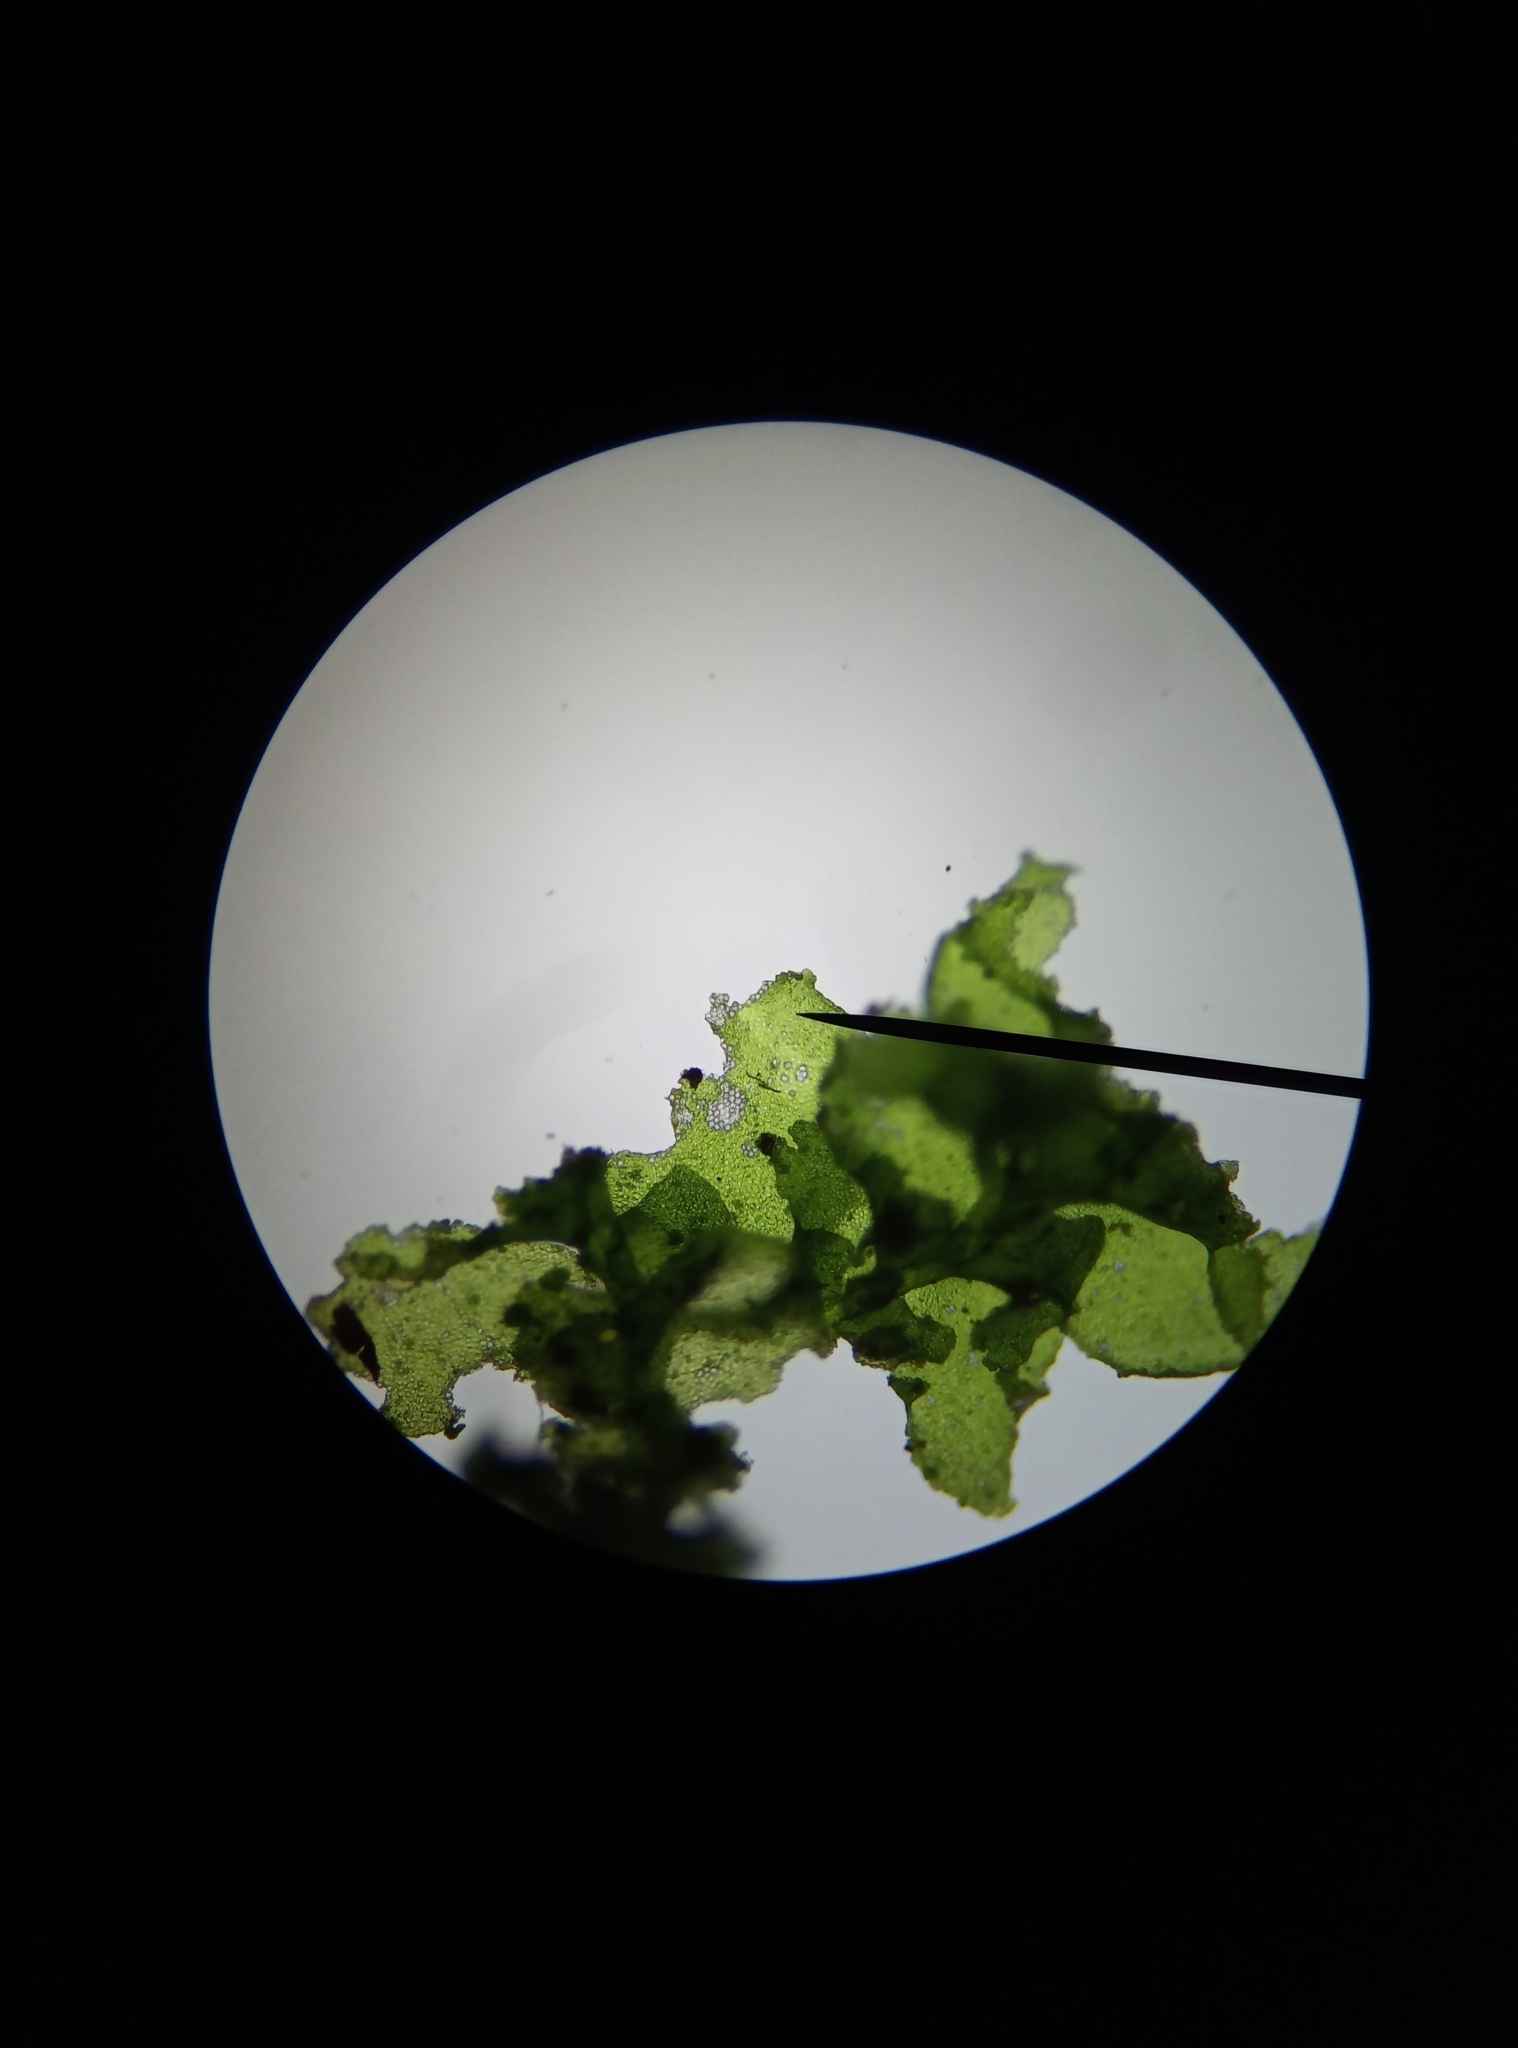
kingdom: Plantae
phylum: Marchantiophyta
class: Jungermanniopsida
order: Porellales
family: Radulaceae
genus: Radula
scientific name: Radula complanata
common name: Flat-leaved scalewort
